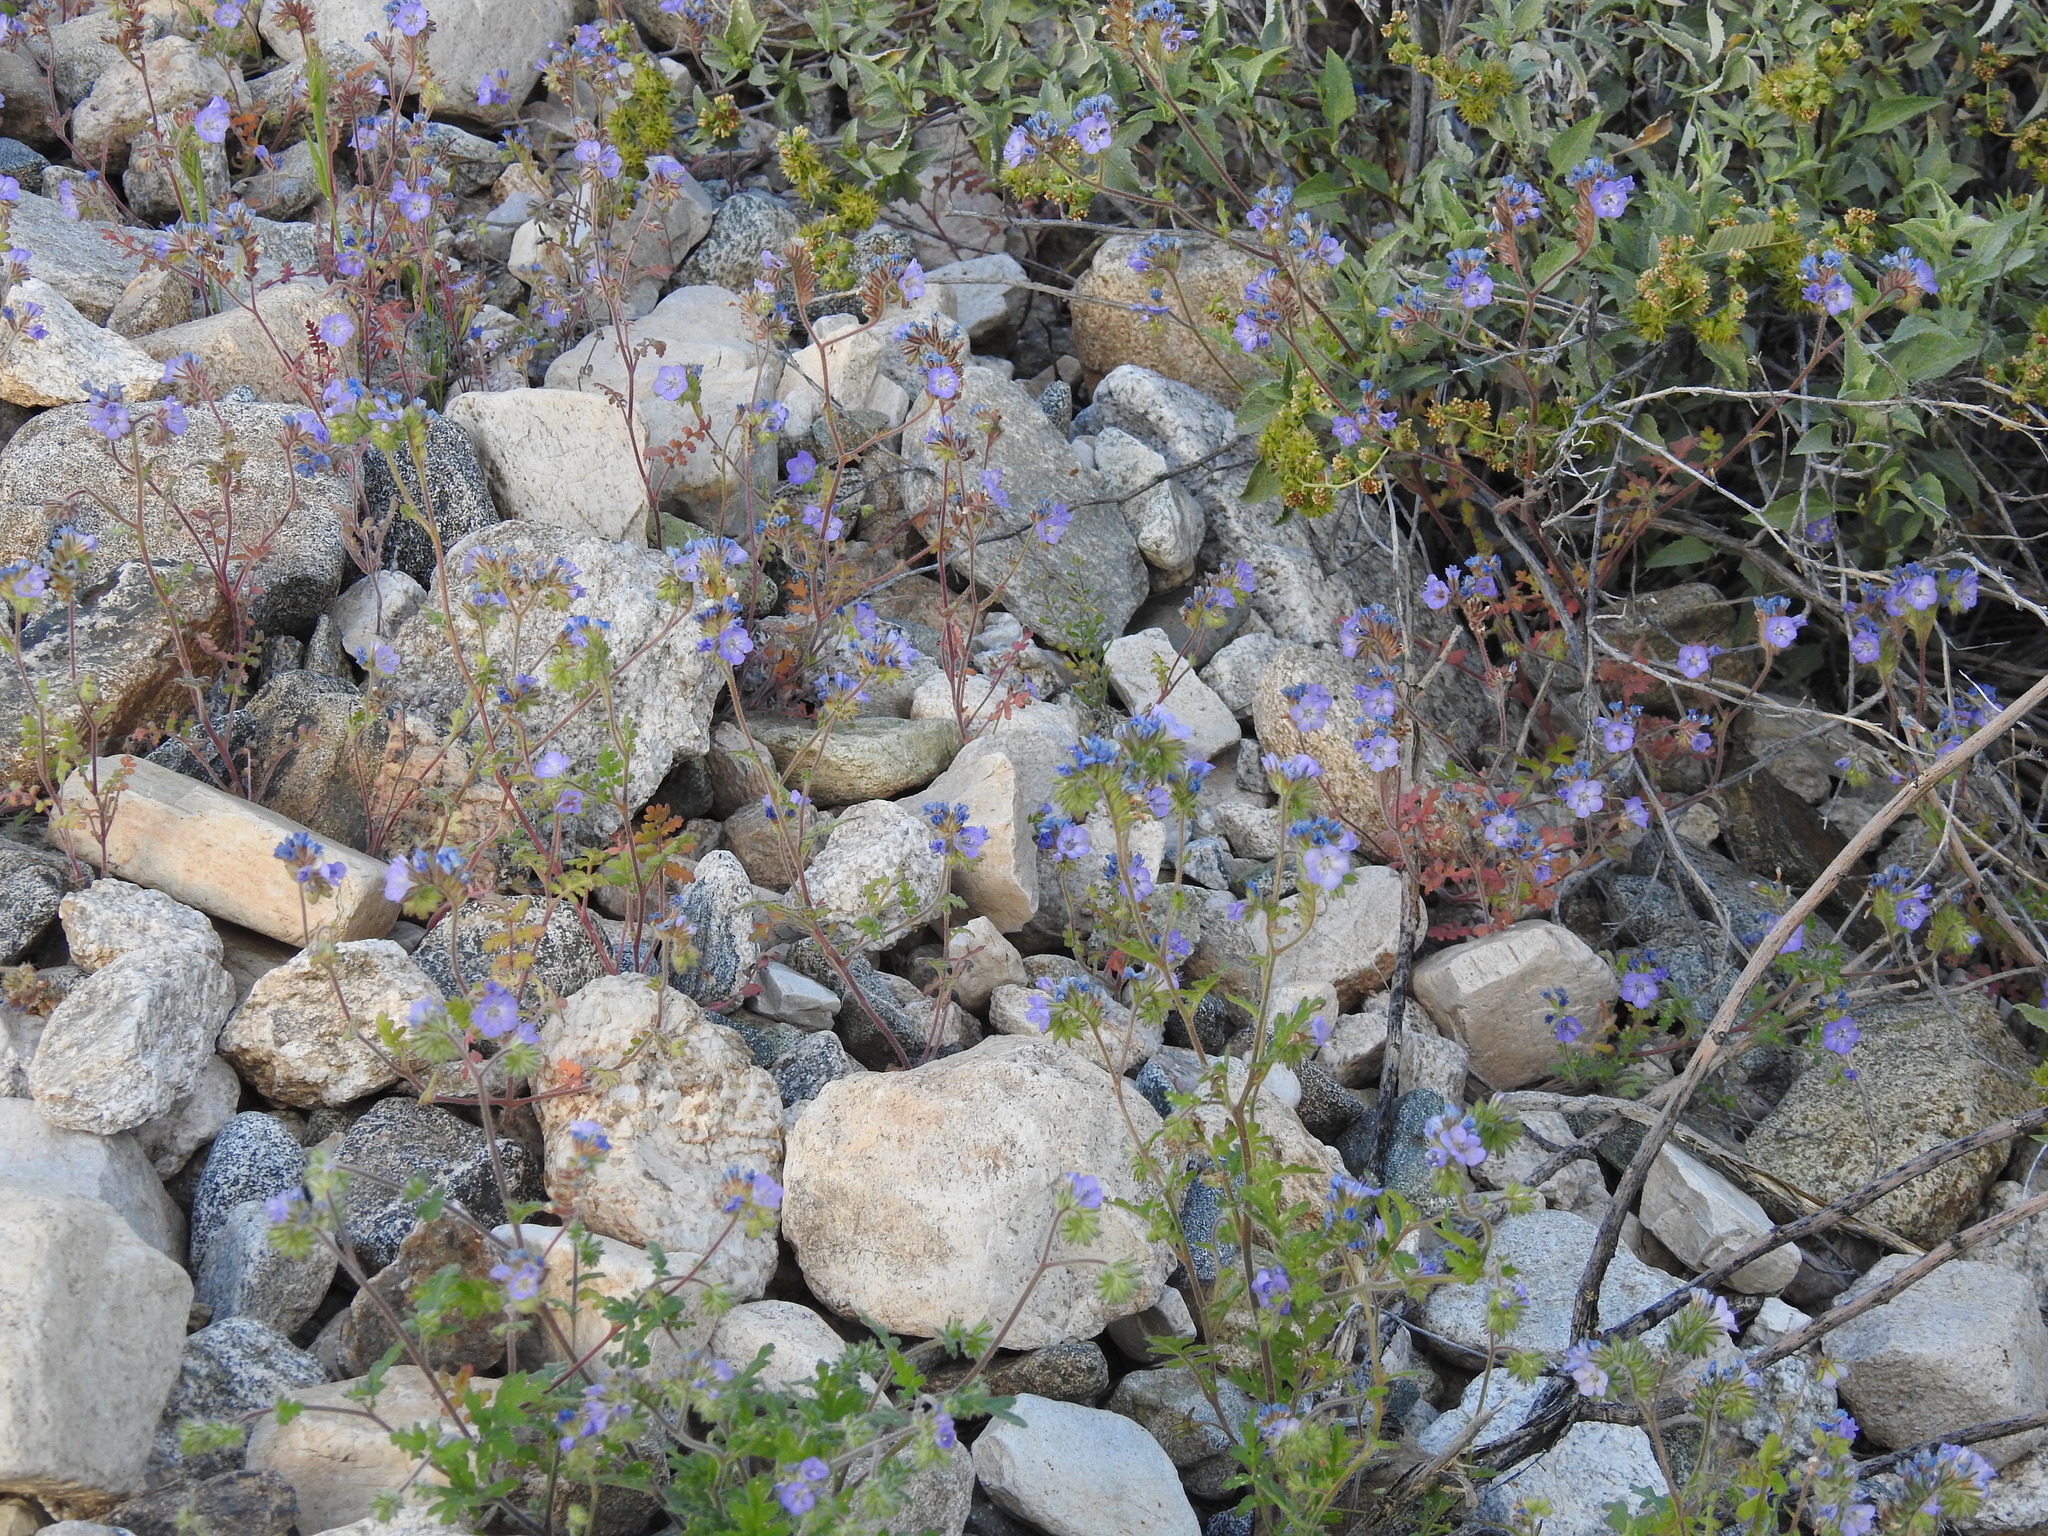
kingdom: Plantae
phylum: Tracheophyta
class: Magnoliopsida
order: Boraginales
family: Hydrophyllaceae
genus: Phacelia
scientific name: Phacelia distans
